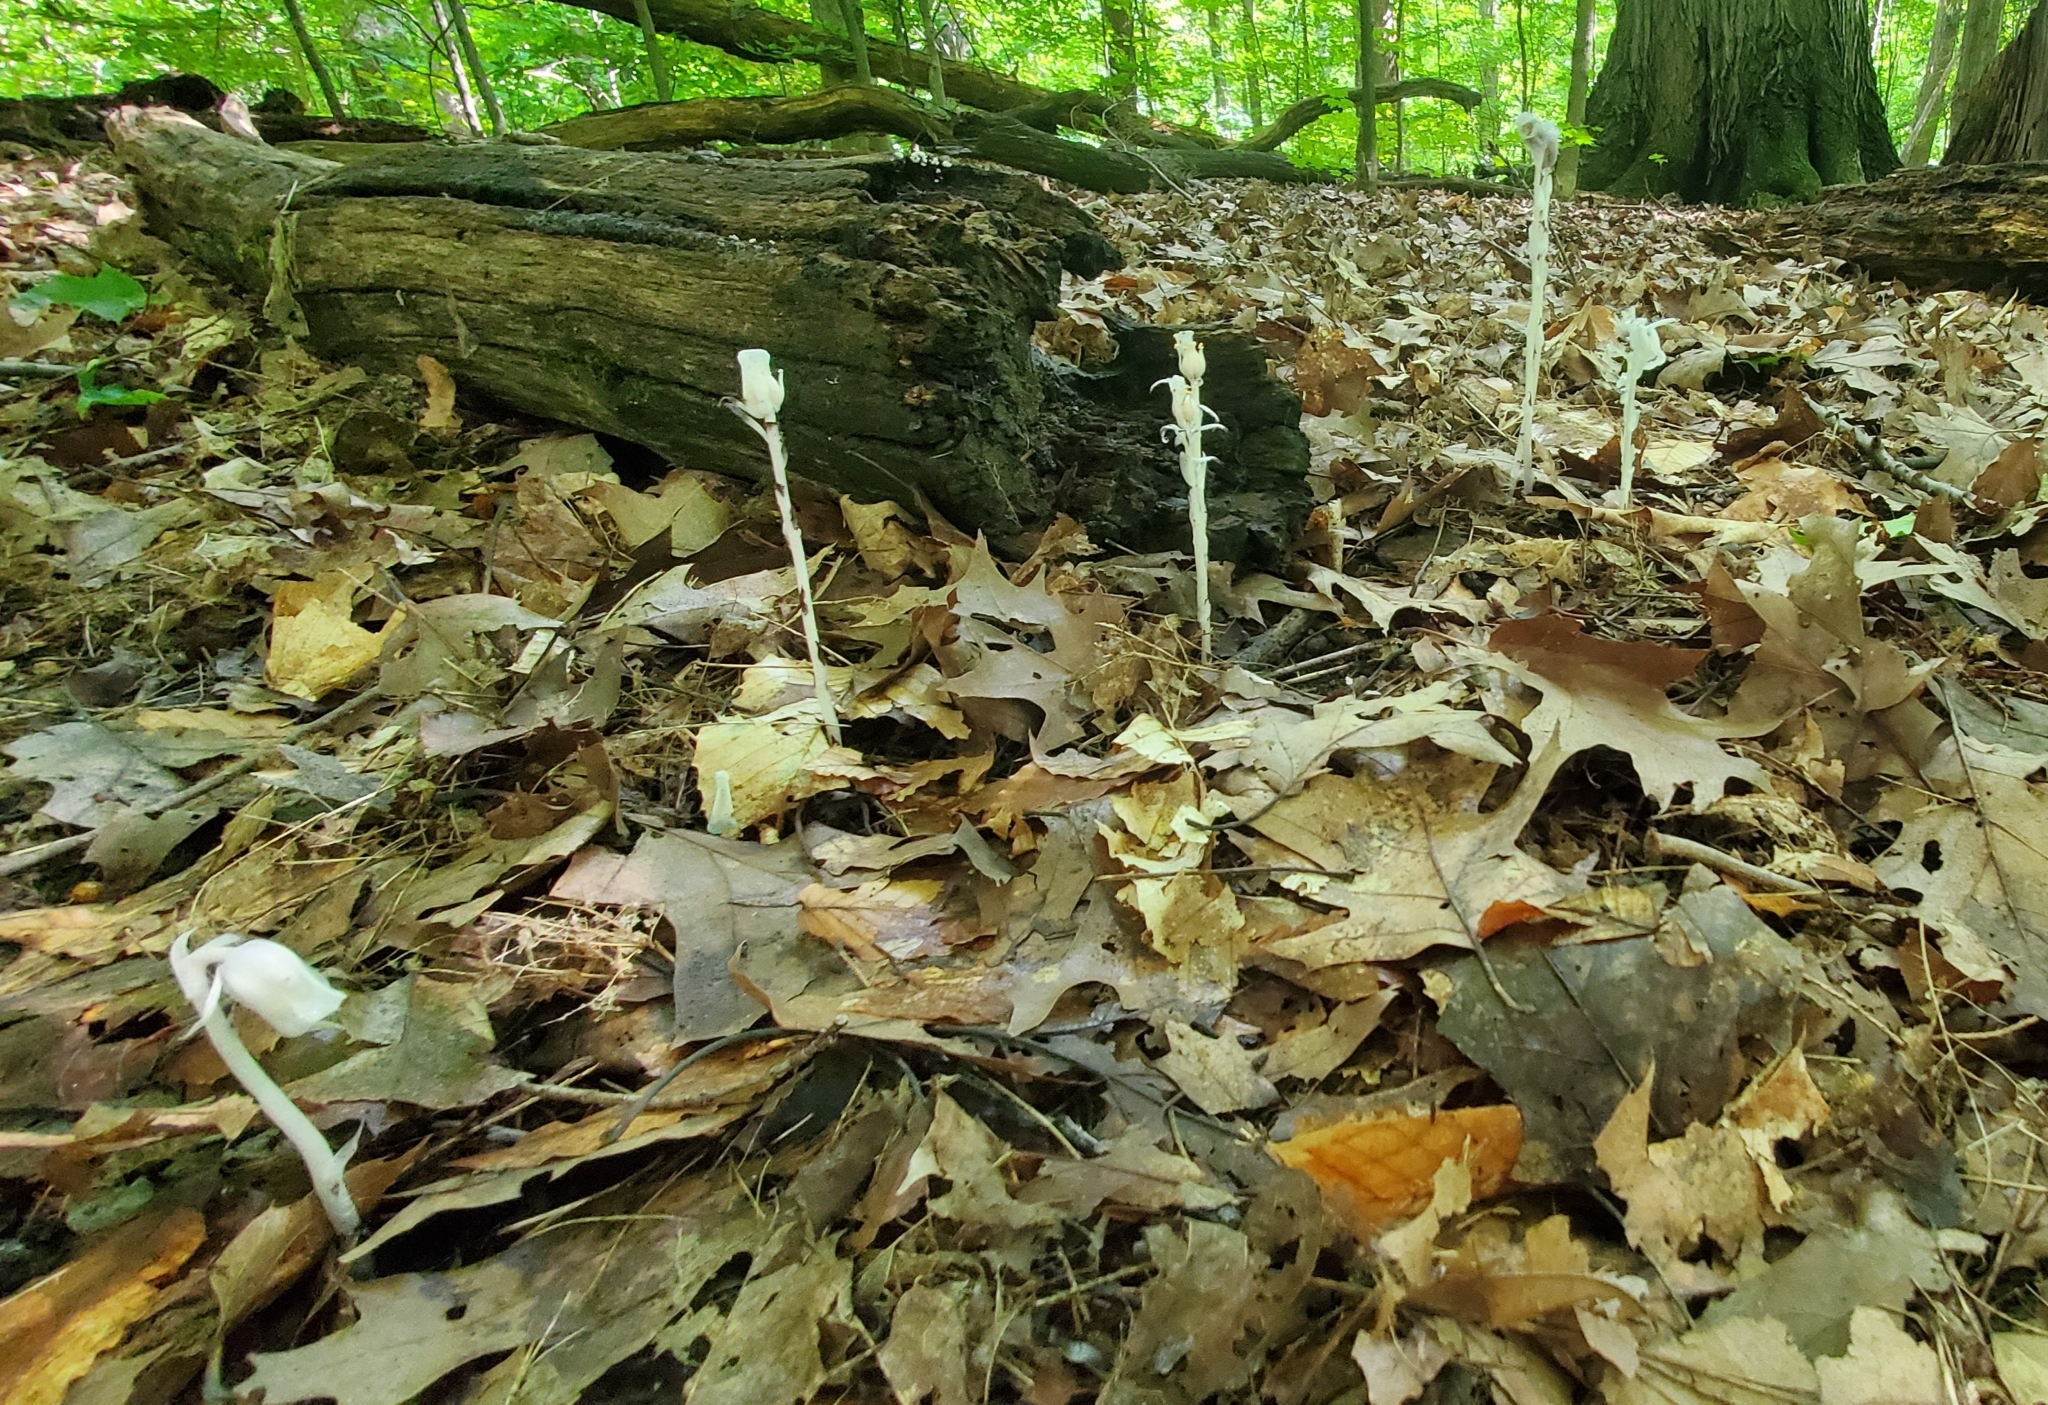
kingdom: Plantae
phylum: Tracheophyta
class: Magnoliopsida
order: Ericales
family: Ericaceae
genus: Monotropa
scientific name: Monotropa uniflora
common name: Convulsion root
